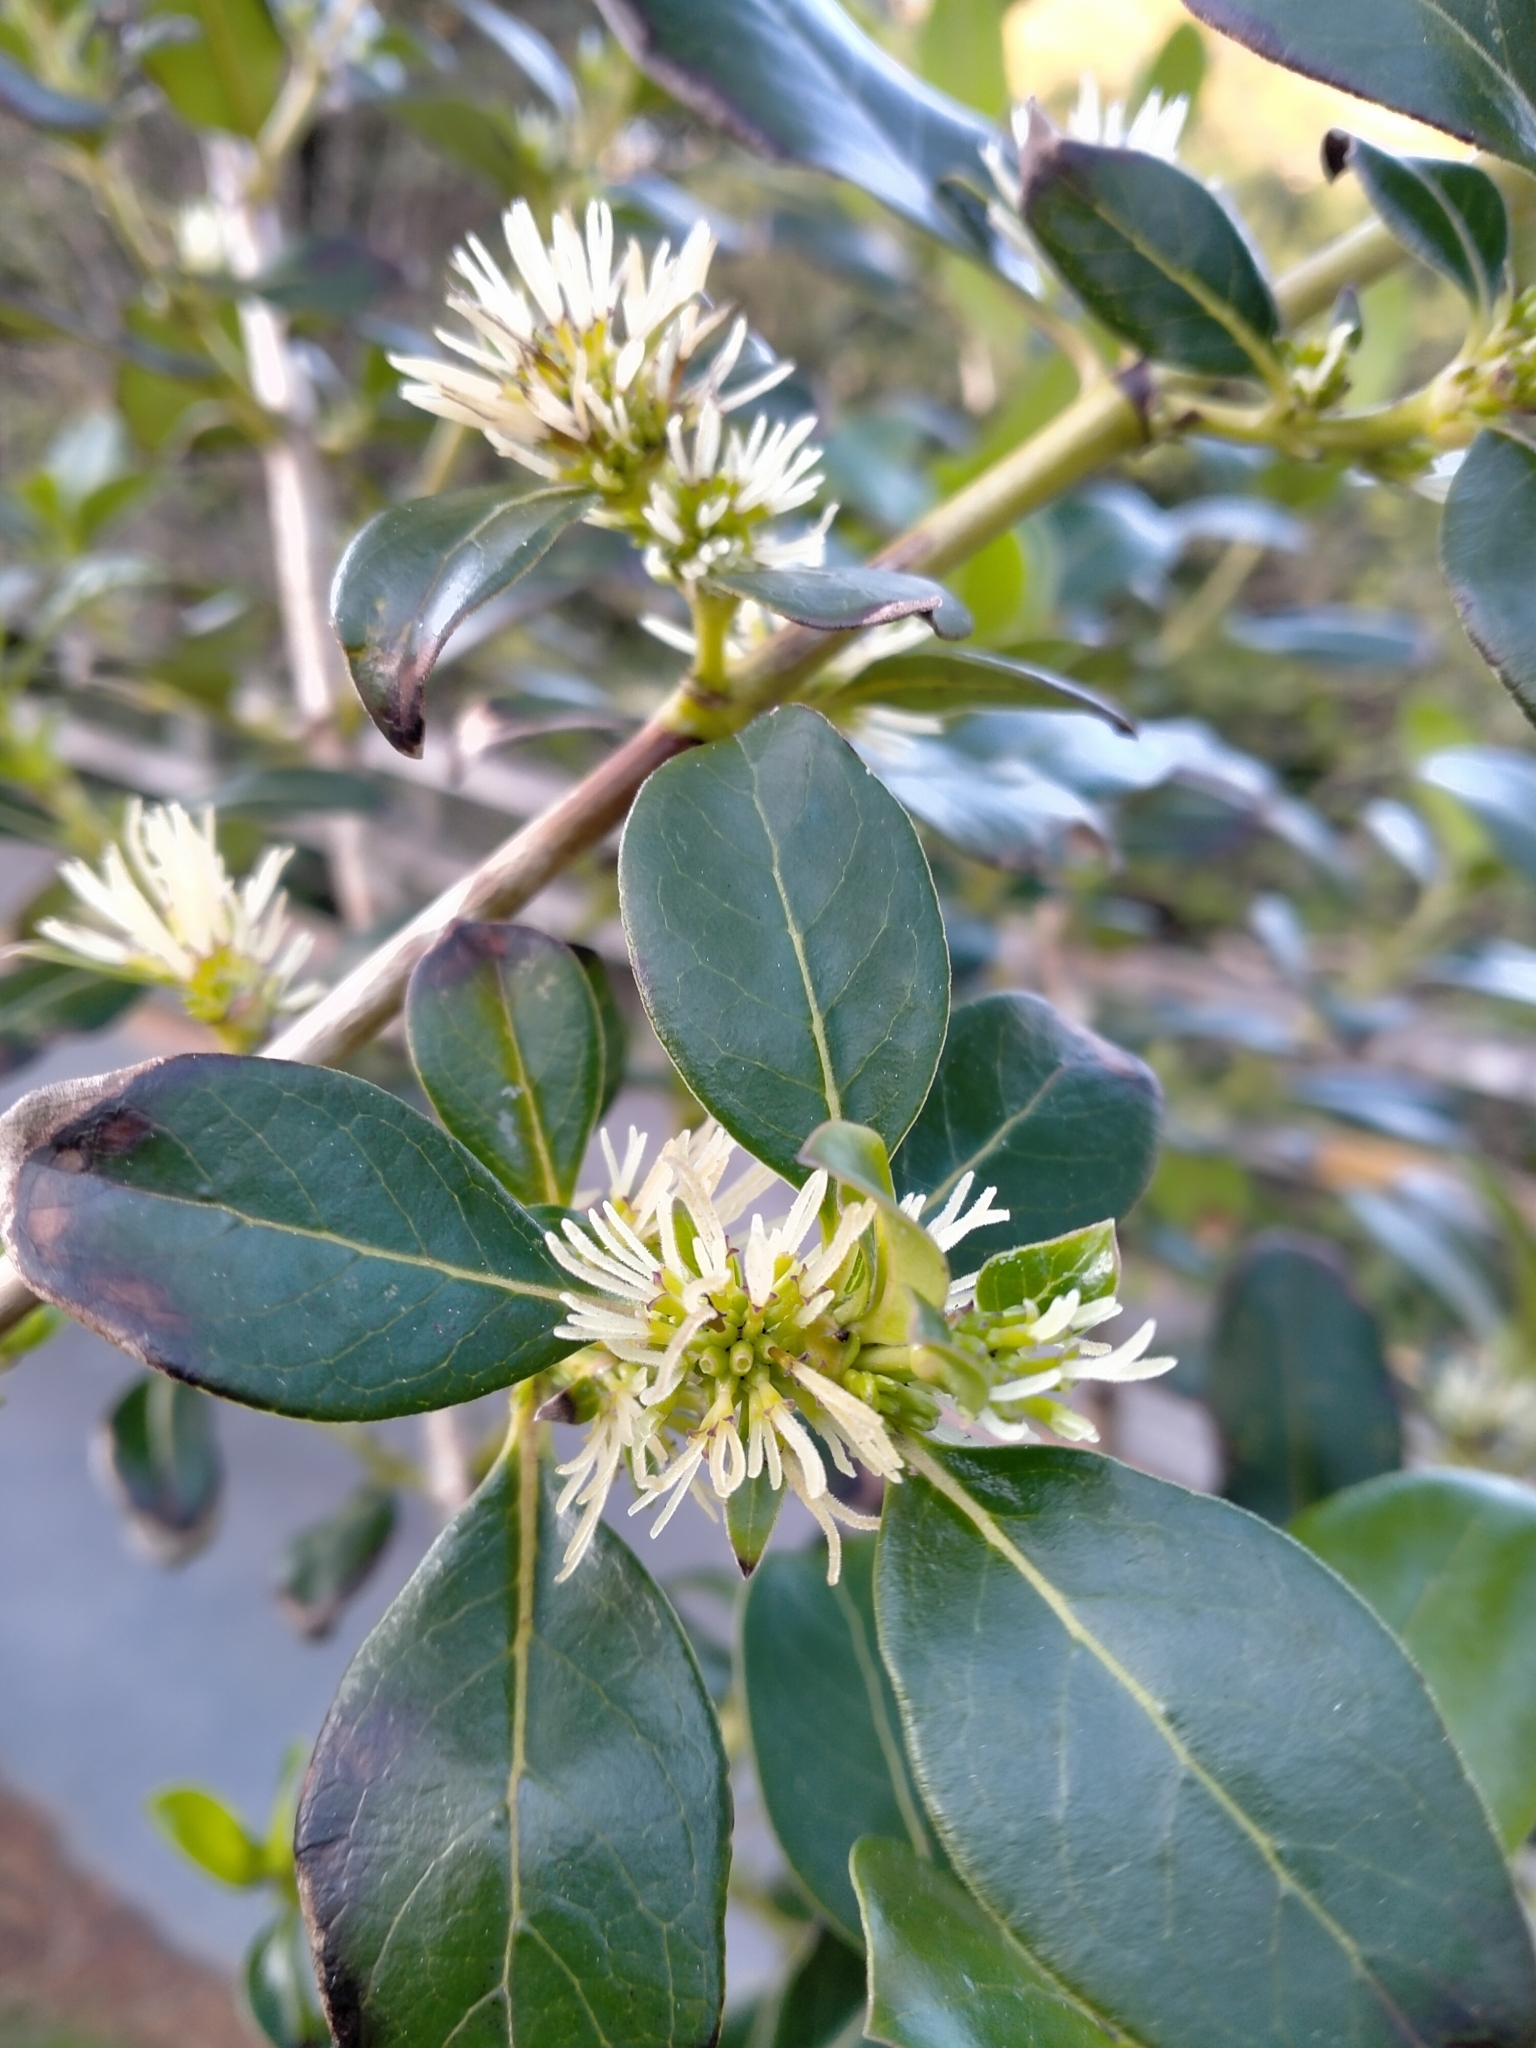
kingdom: Plantae
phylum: Tracheophyta
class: Magnoliopsida
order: Gentianales
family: Rubiaceae
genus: Coprosma
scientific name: Coprosma robusta
